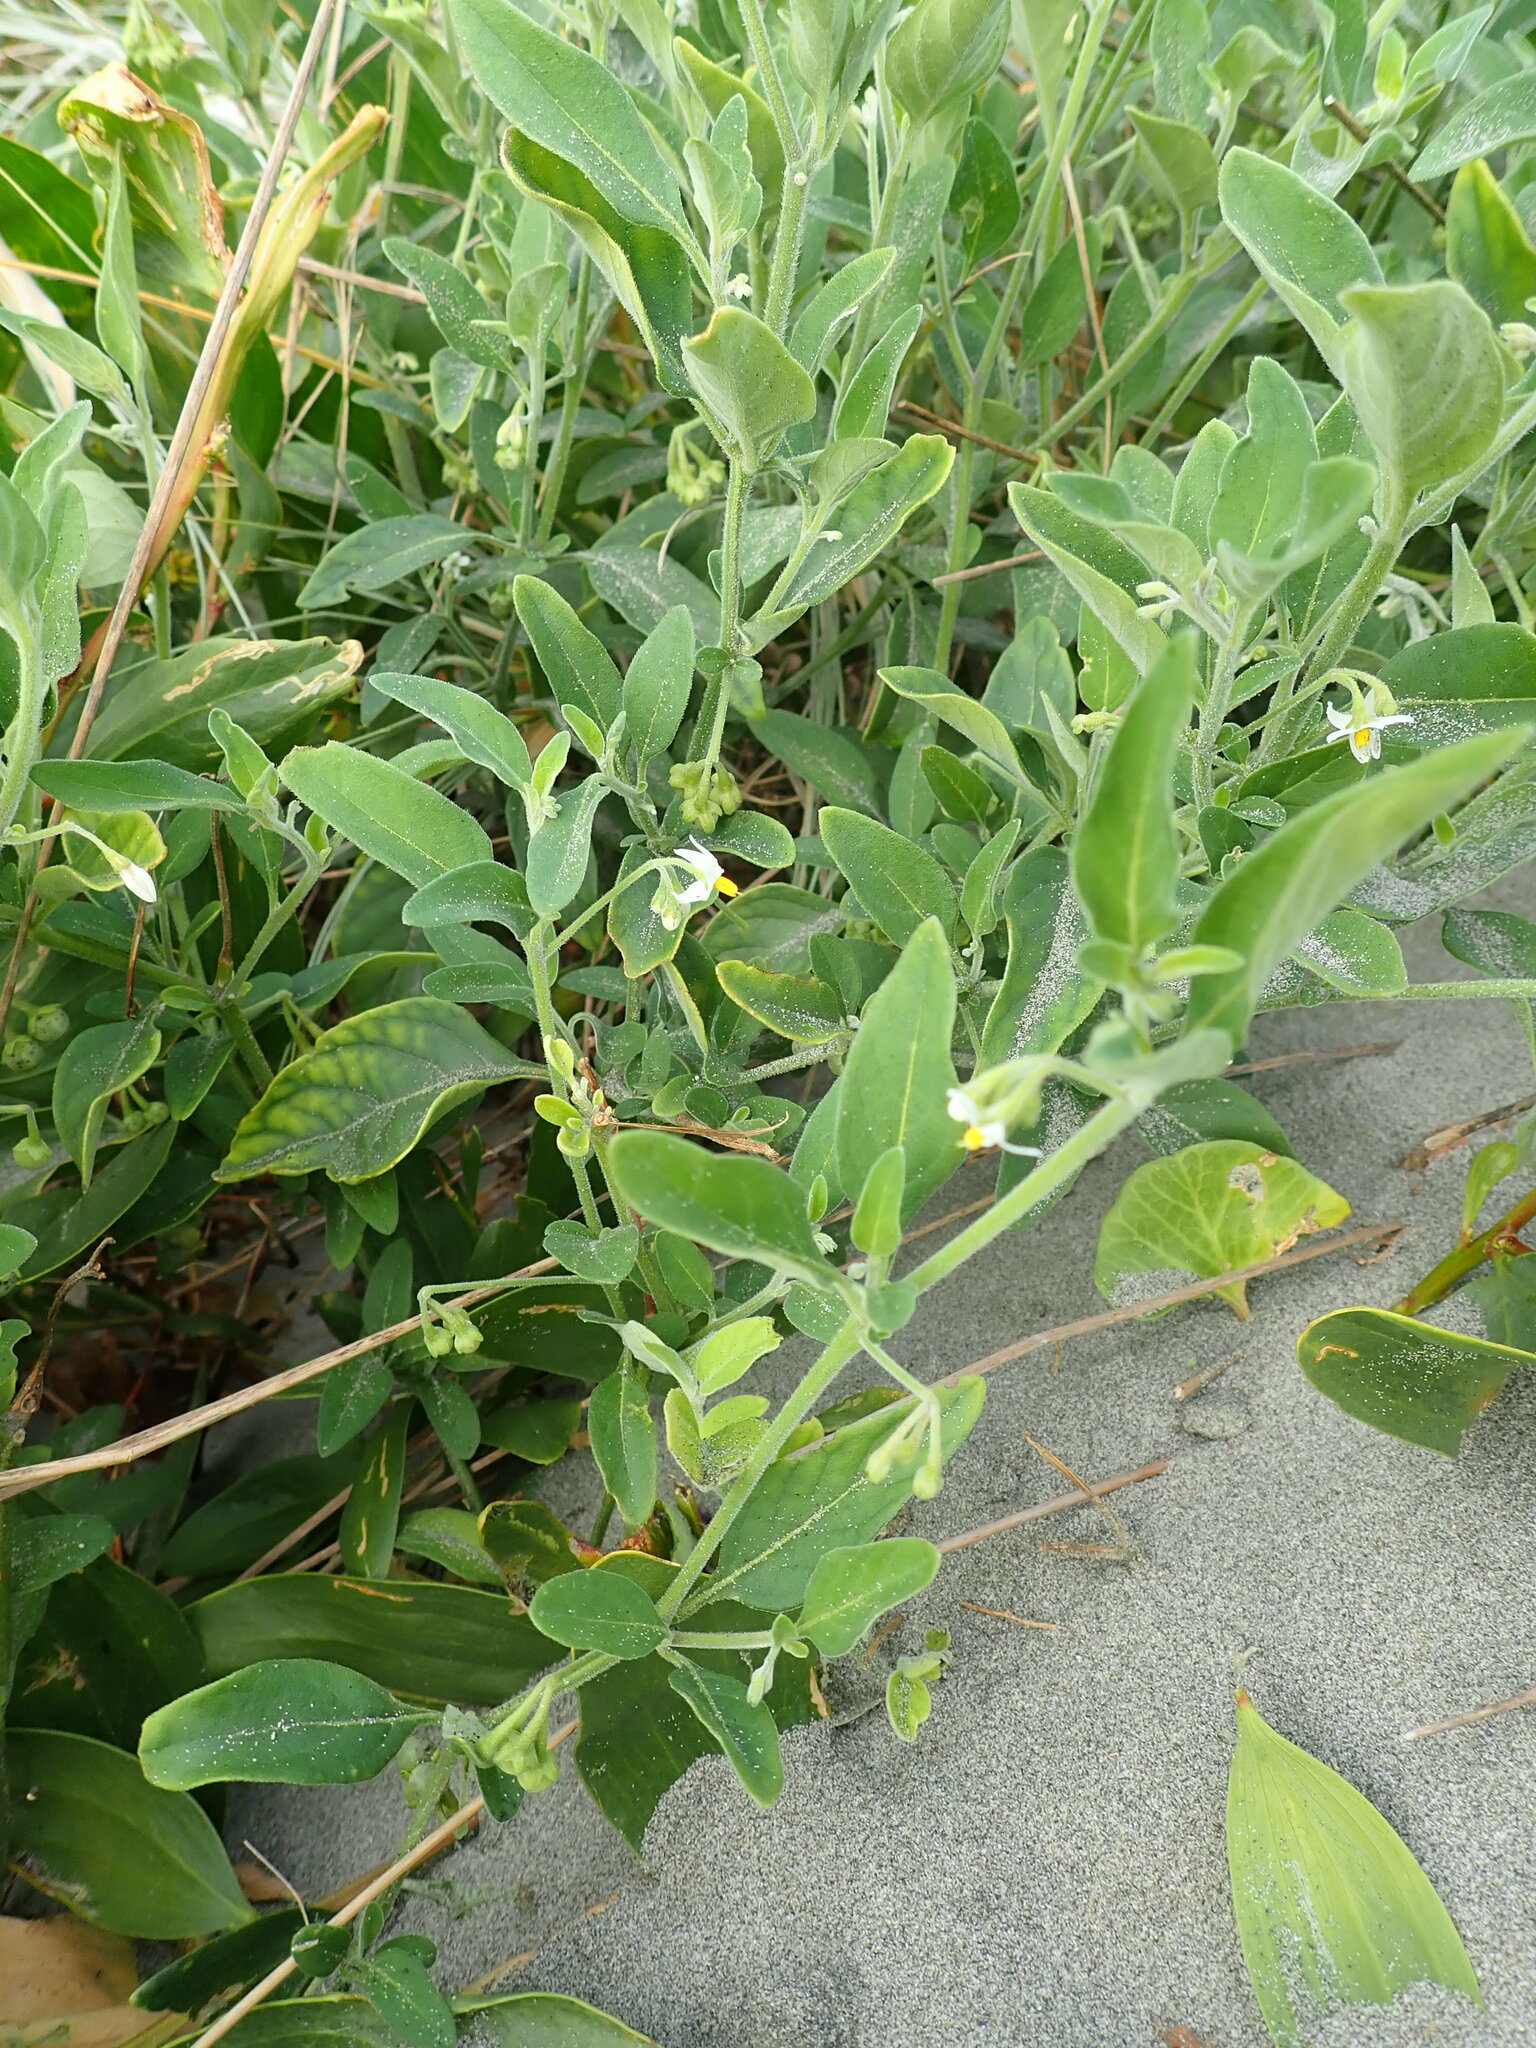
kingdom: Plantae
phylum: Tracheophyta
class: Magnoliopsida
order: Solanales
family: Solanaceae
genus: Solanum
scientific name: Solanum chenopodioides
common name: Tall nightshade
